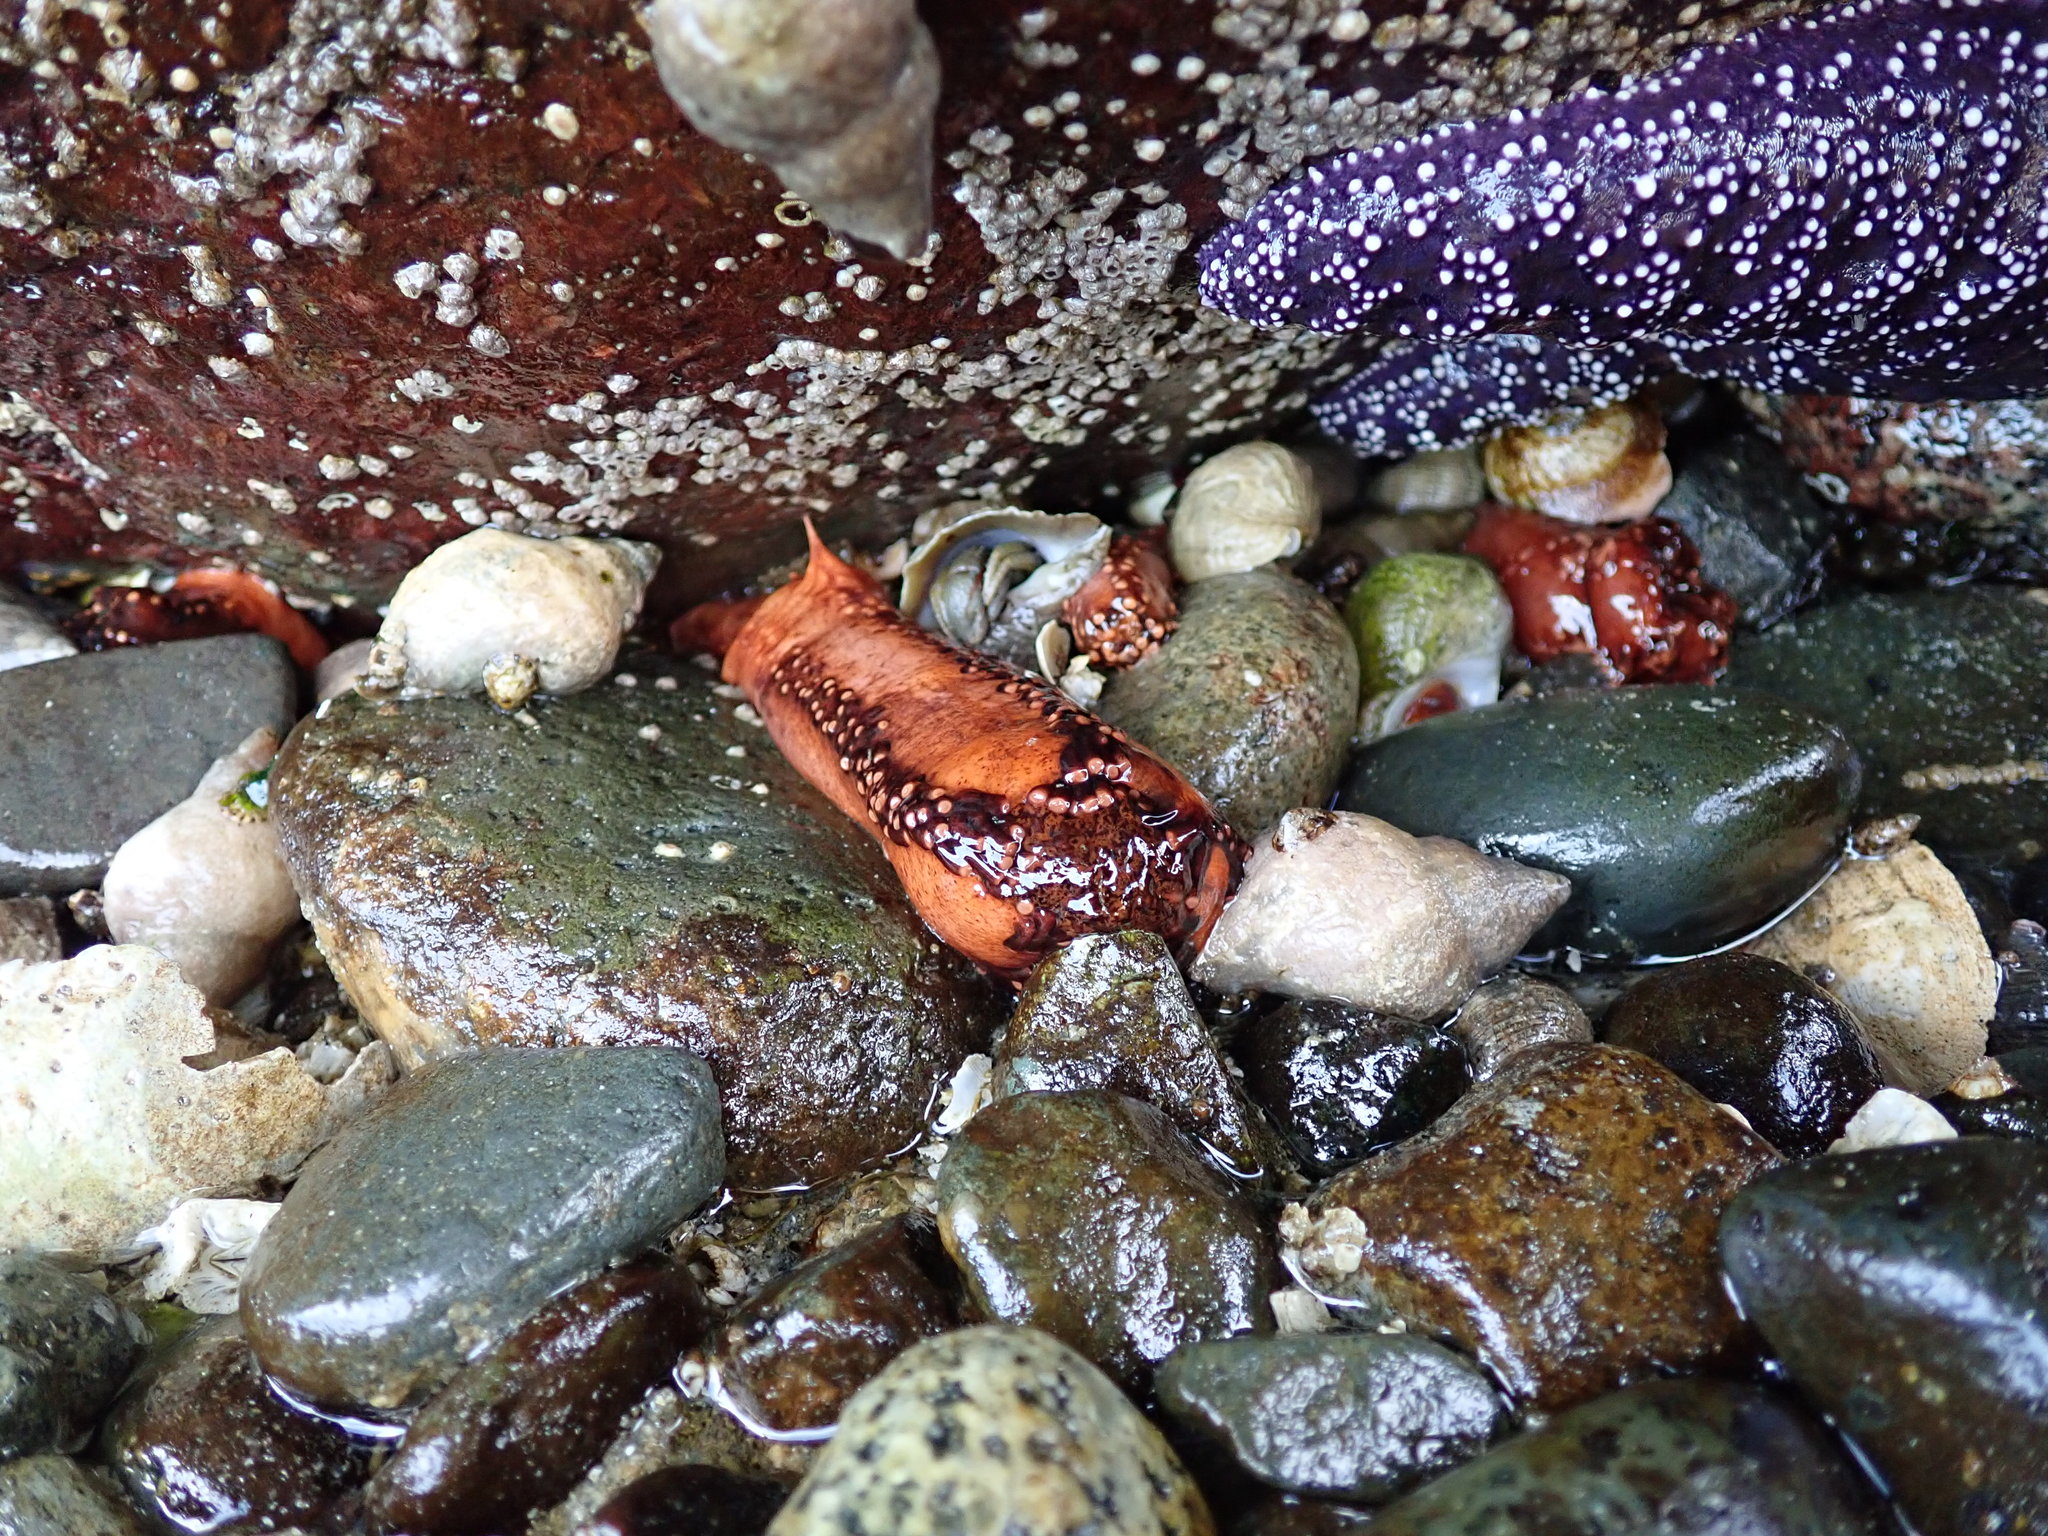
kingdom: Animalia
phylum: Echinodermata
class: Holothuroidea
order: Dendrochirotida
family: Cucumariidae
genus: Cucumaria
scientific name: Cucumaria miniata
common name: Orange sea cucumber
